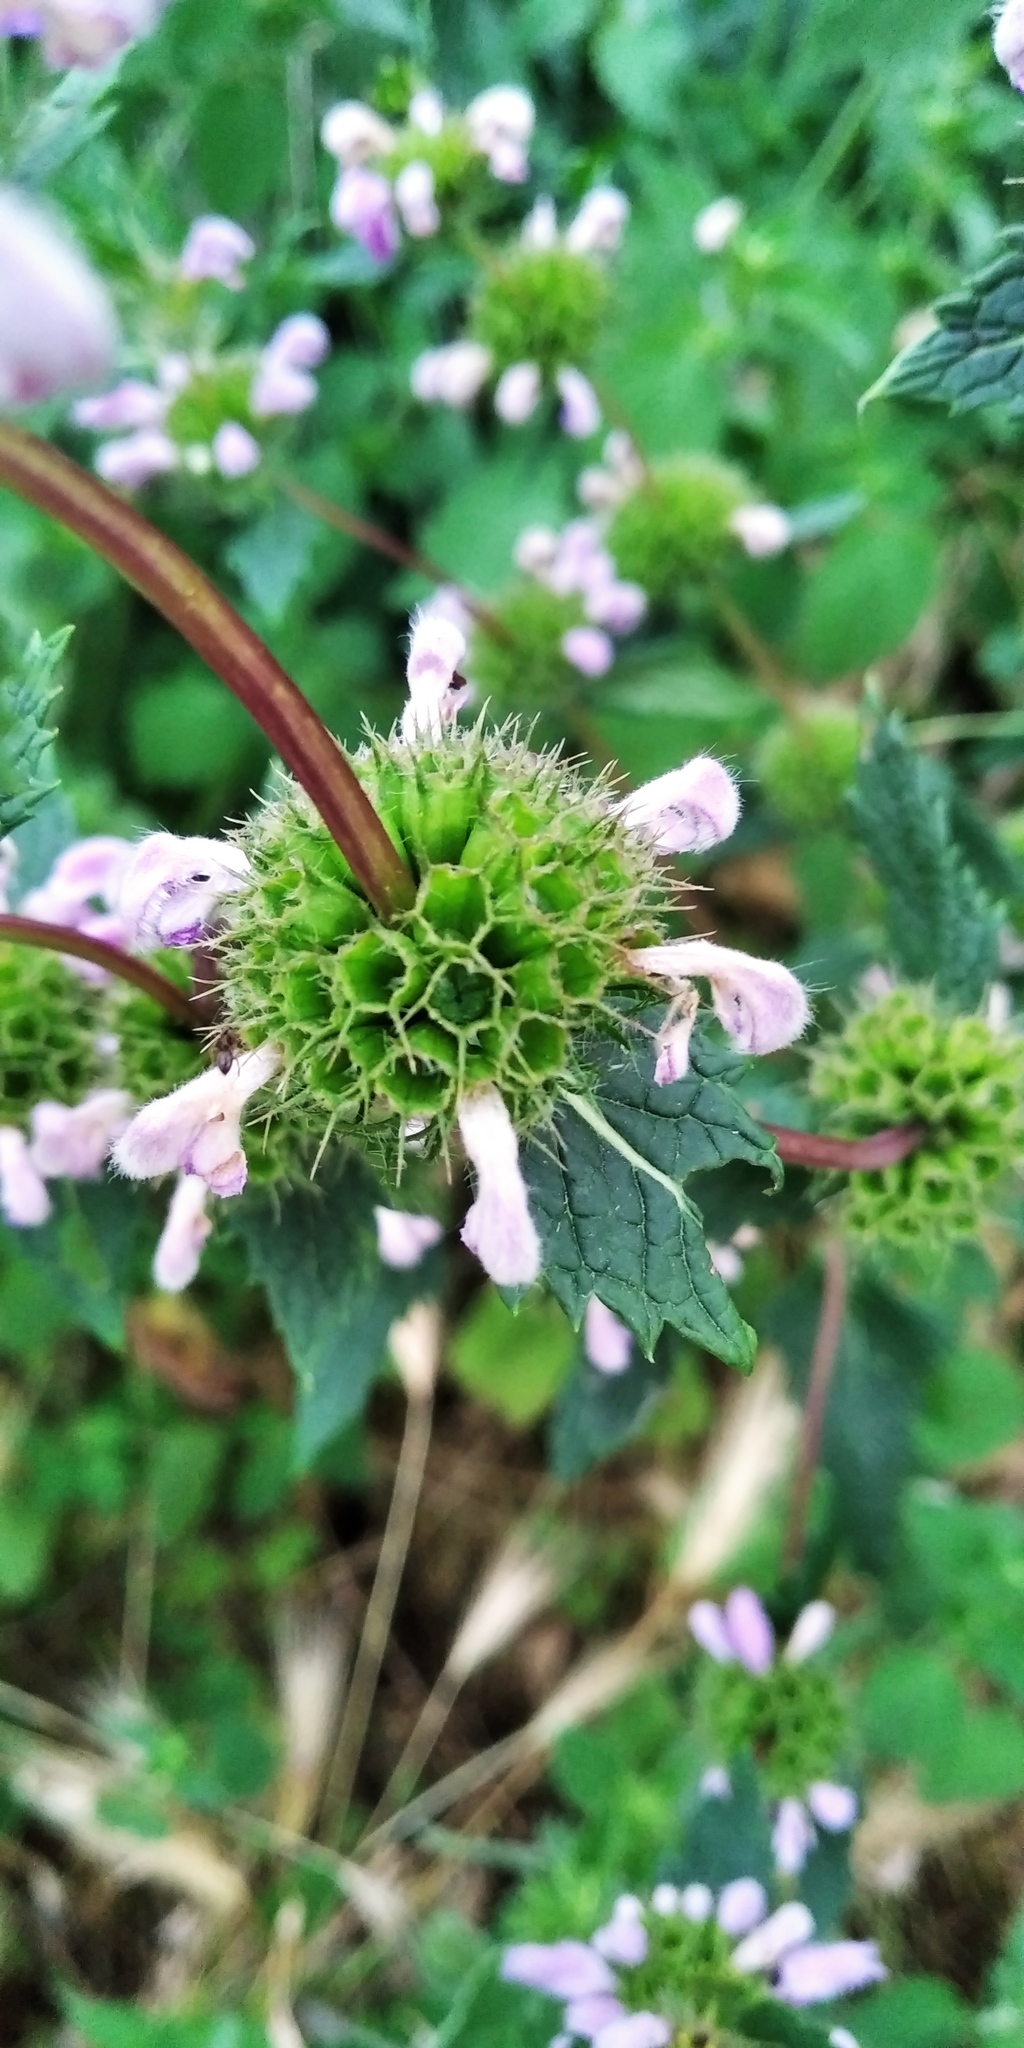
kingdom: Plantae
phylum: Tracheophyta
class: Magnoliopsida
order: Lamiales
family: Lamiaceae
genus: Phlomoides
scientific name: Phlomoides tuberosa
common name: Tuberous jerusalem sage
